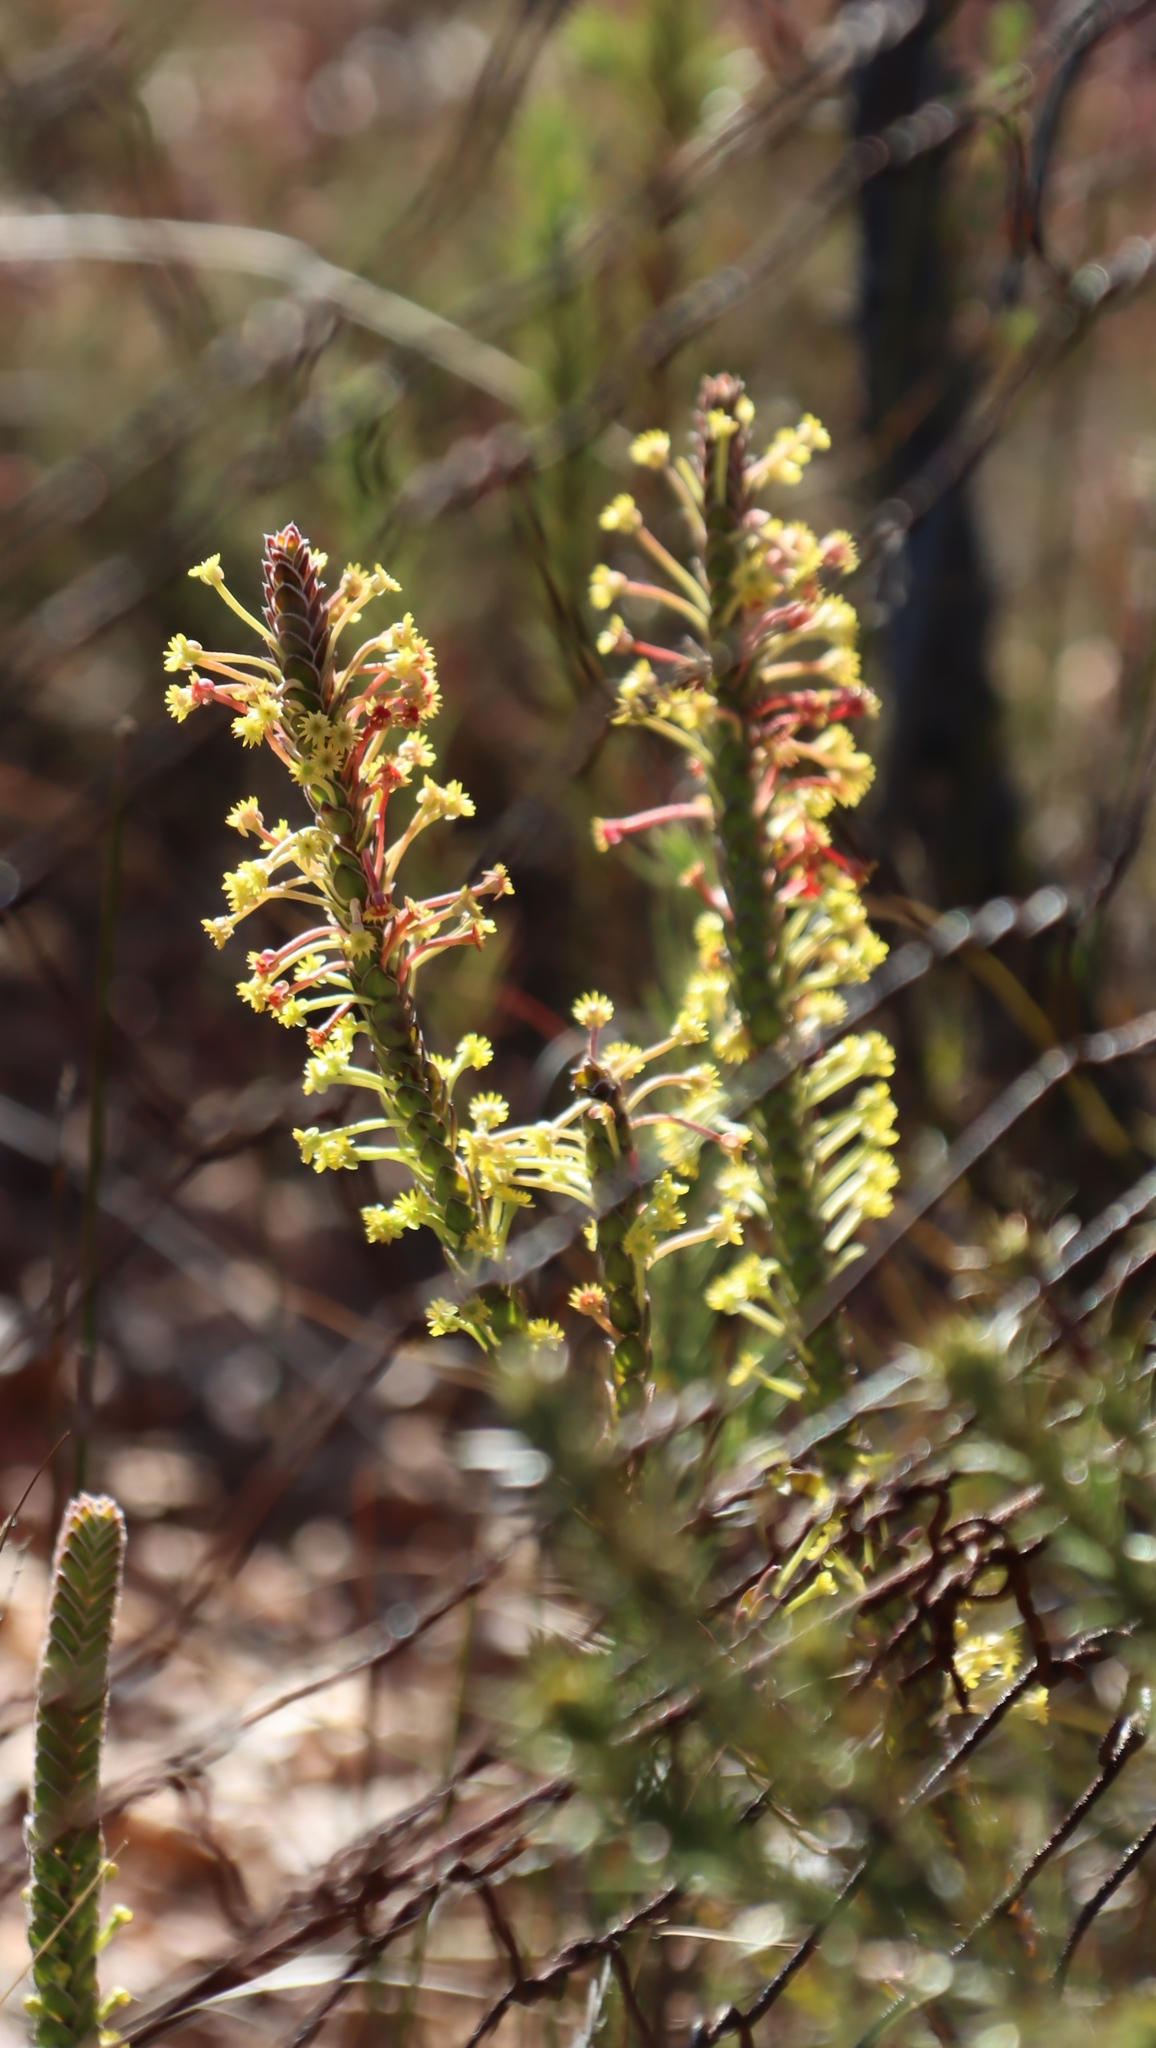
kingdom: Plantae
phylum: Tracheophyta
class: Magnoliopsida
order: Malvales
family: Thymelaeaceae
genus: Struthiola
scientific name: Struthiola argentea
